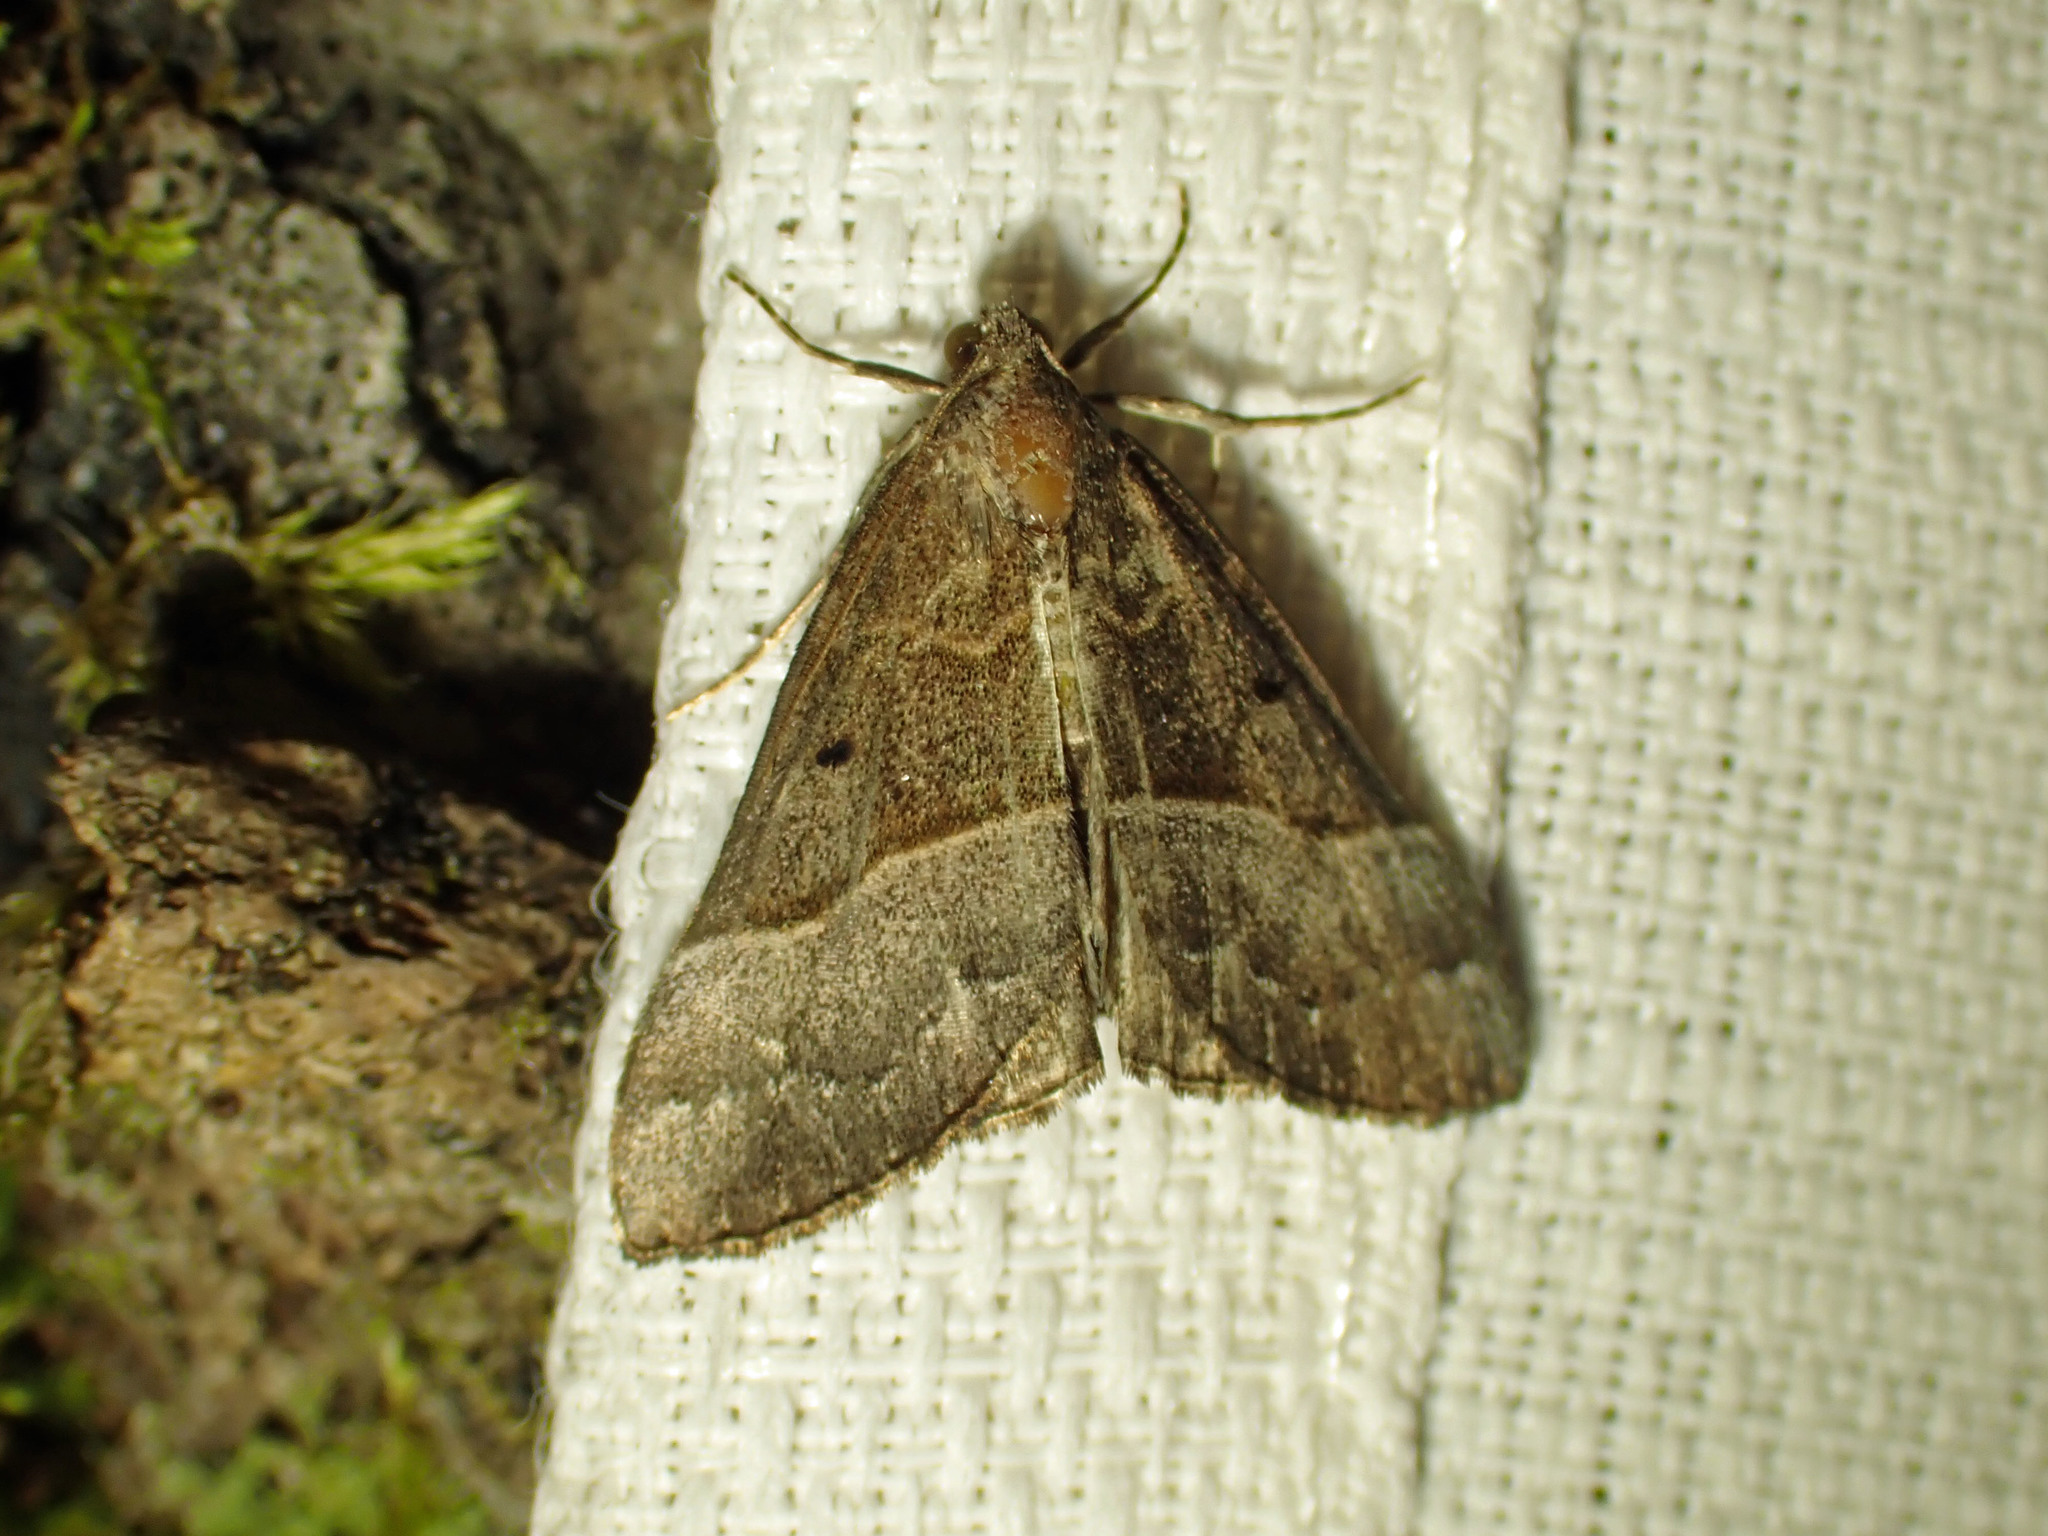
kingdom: Animalia
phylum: Arthropoda
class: Insecta
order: Lepidoptera
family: Erebidae
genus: Hypena
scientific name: Hypena eductalis
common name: Red-footed snout
